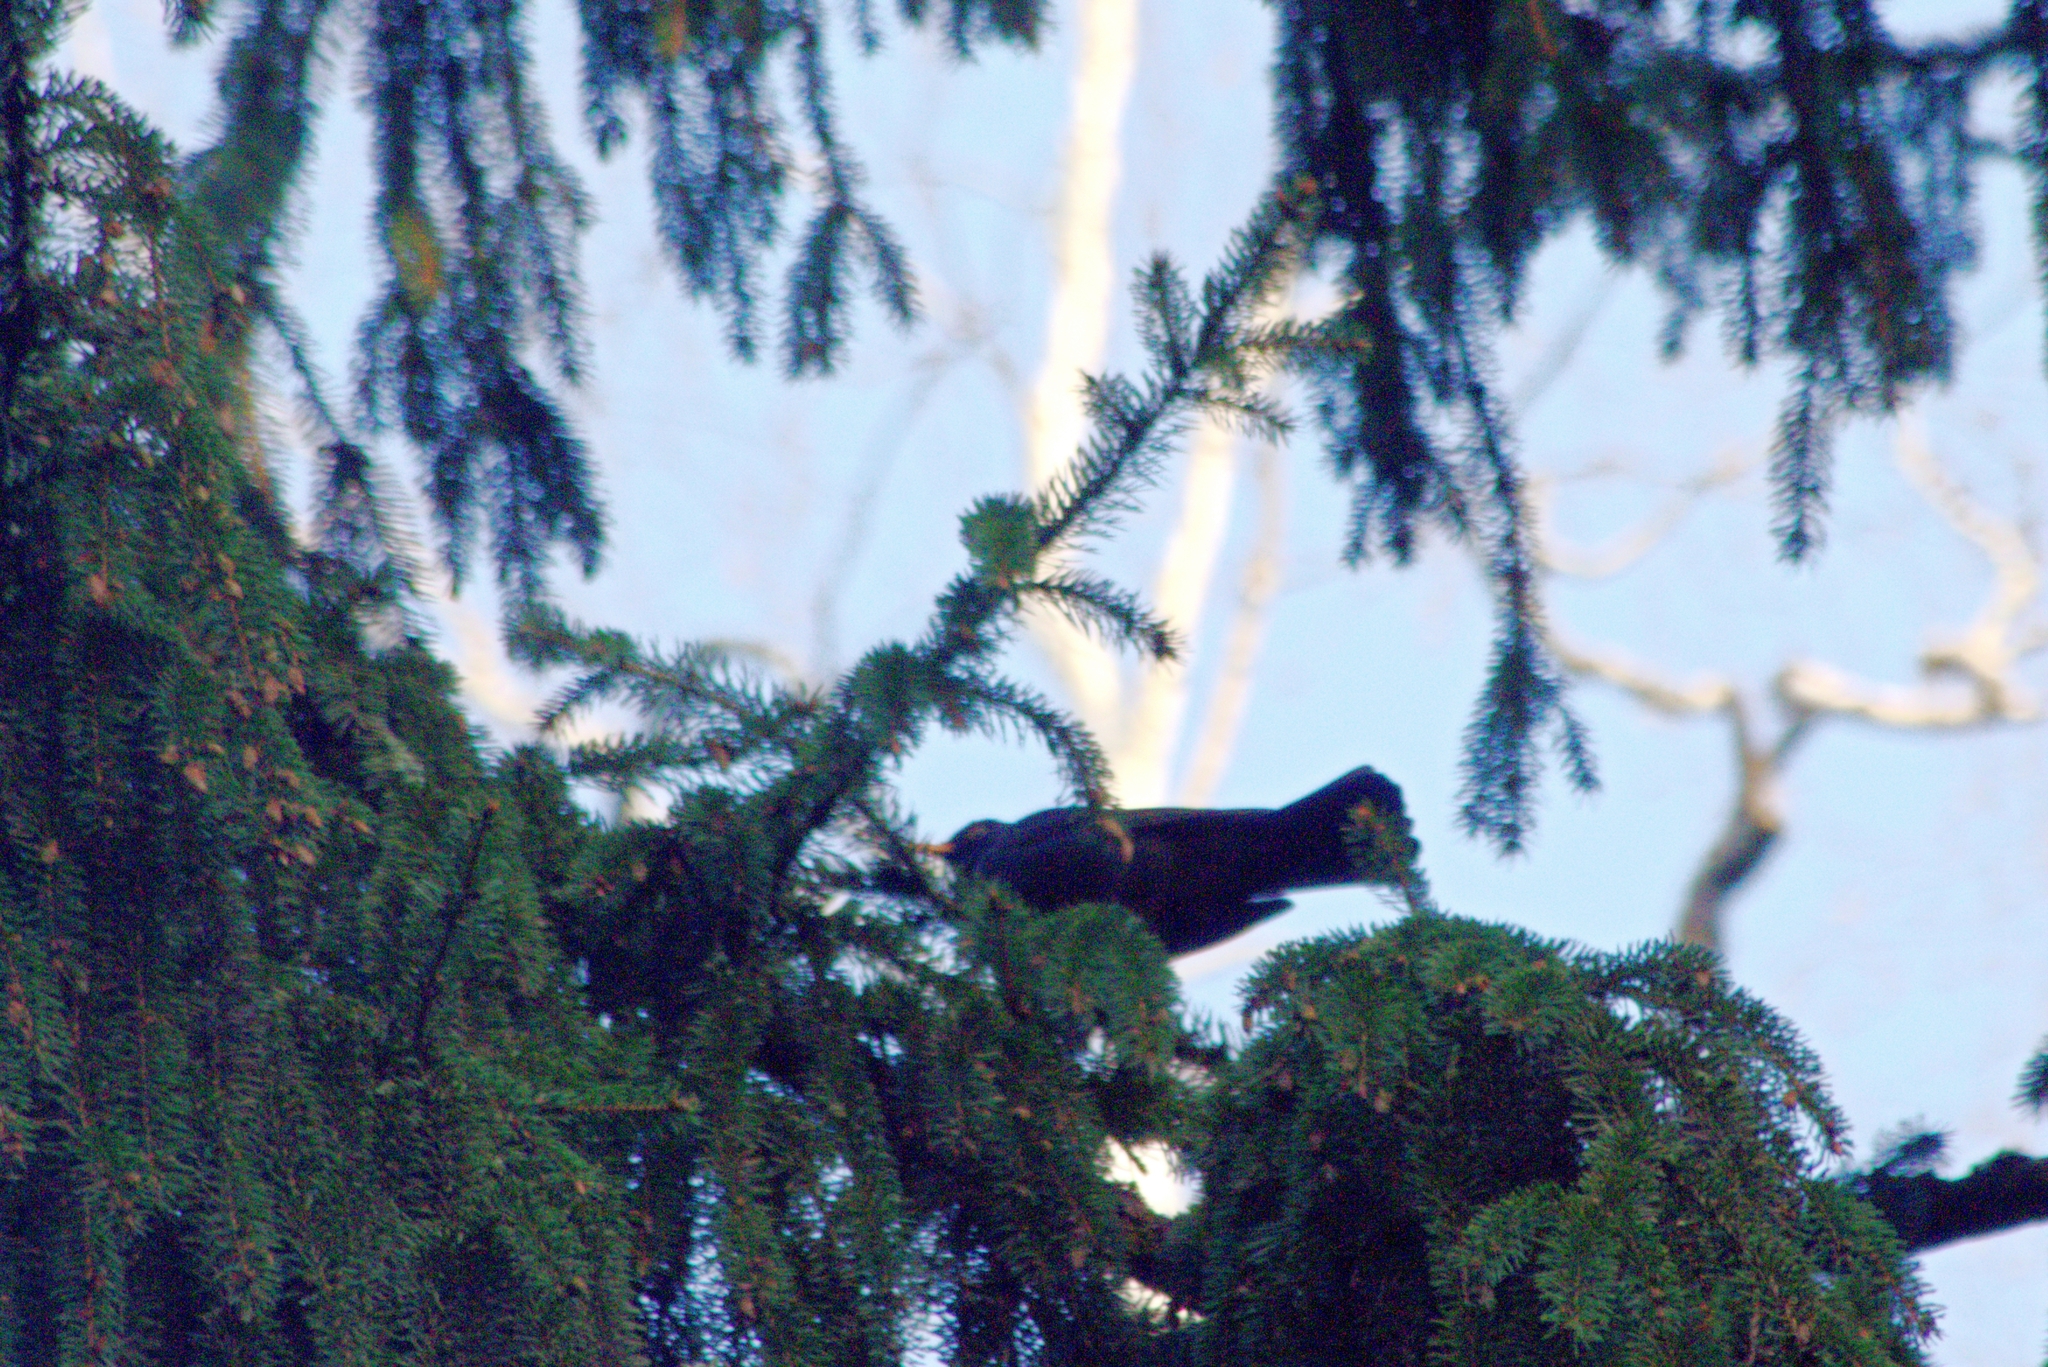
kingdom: Animalia
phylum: Chordata
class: Aves
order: Passeriformes
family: Turdidae
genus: Turdus
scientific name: Turdus merula
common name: Common blackbird
